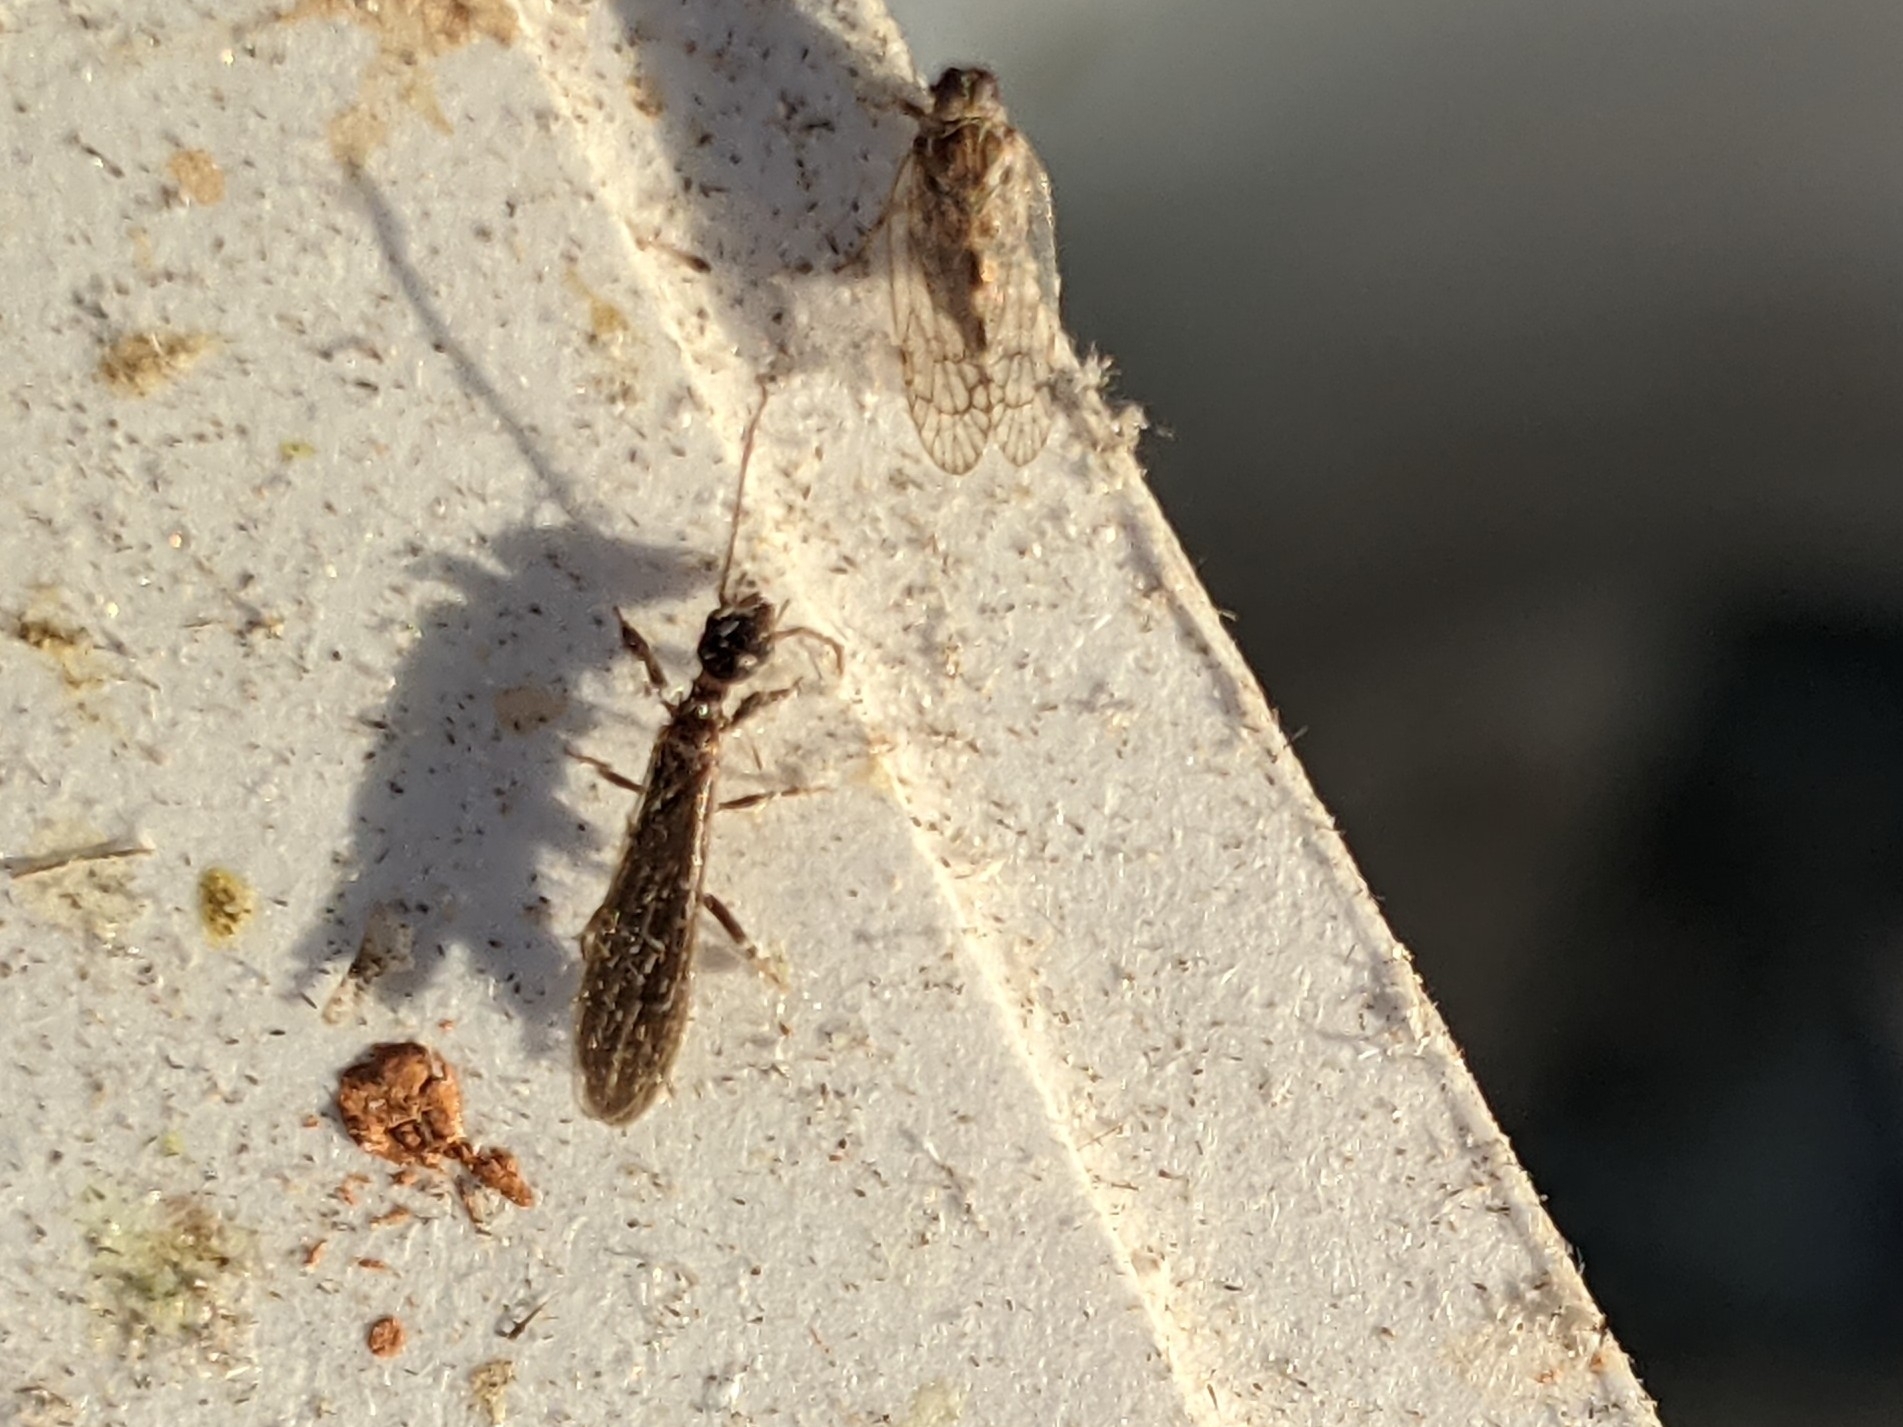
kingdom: Animalia
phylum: Arthropoda
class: Insecta
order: Embioptera
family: Oligotomidae
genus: Oligotoma
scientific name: Oligotoma nigra
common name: Black webspinner
